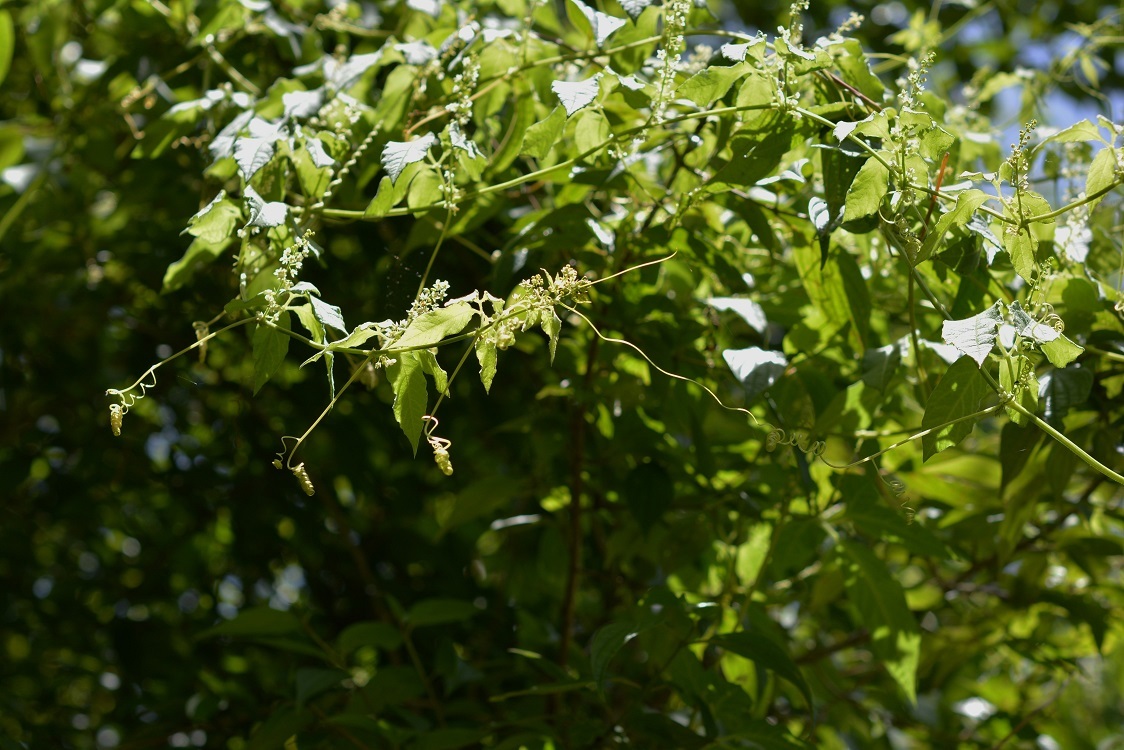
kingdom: Plantae
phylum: Tracheophyta
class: Magnoliopsida
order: Cucurbitales
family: Cucurbitaceae
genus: Cyclanthera
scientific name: Cyclanthera integrifoliola
